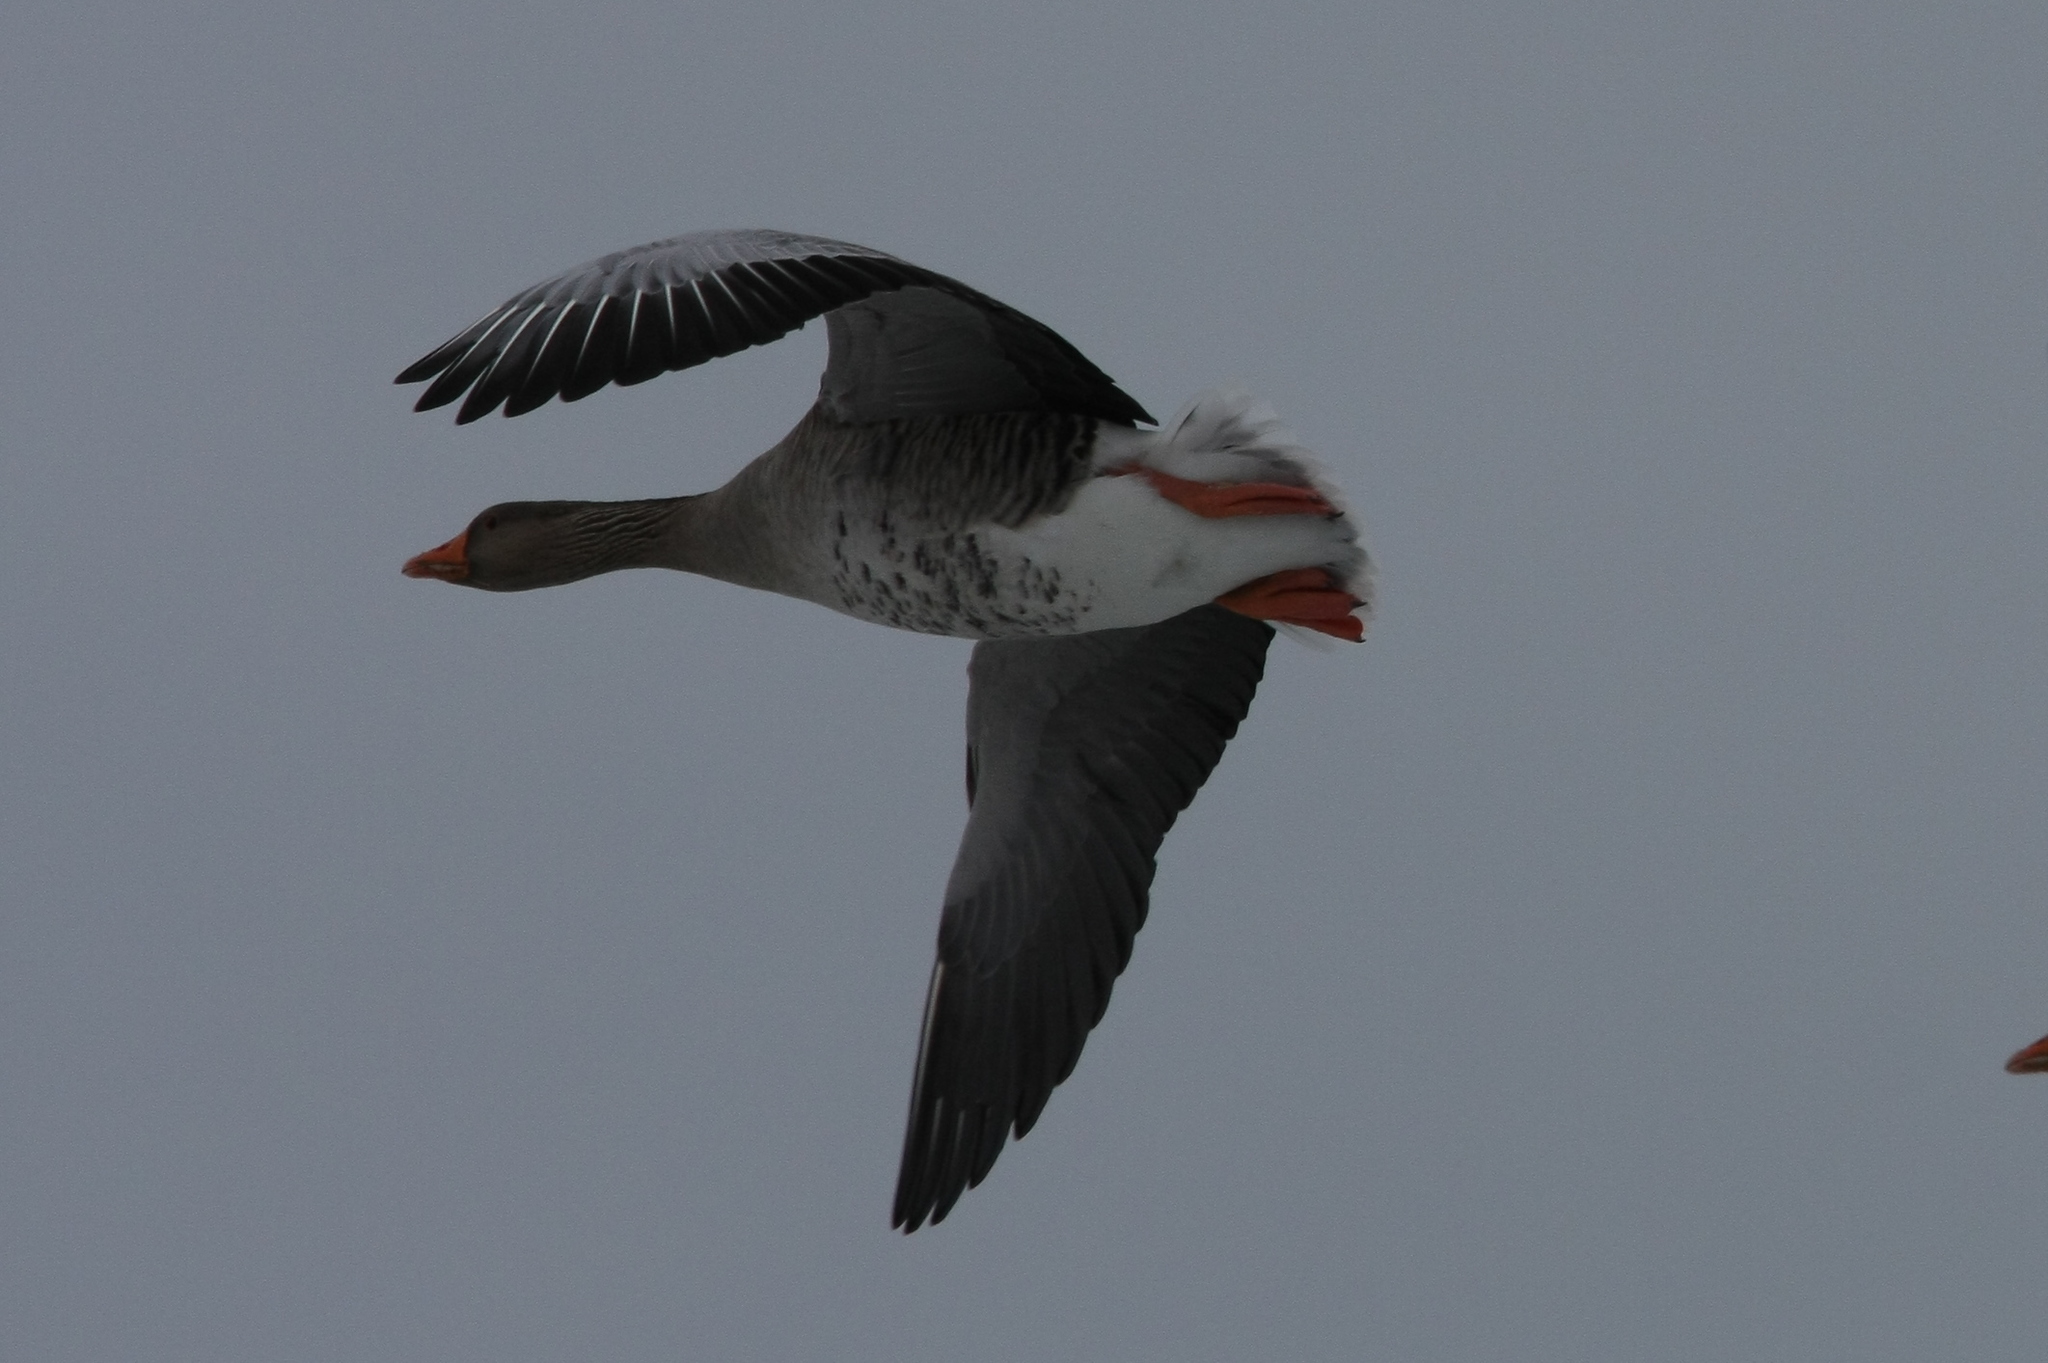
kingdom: Animalia
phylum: Chordata
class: Aves
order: Anseriformes
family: Anatidae
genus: Anser
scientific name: Anser anser
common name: Greylag goose
